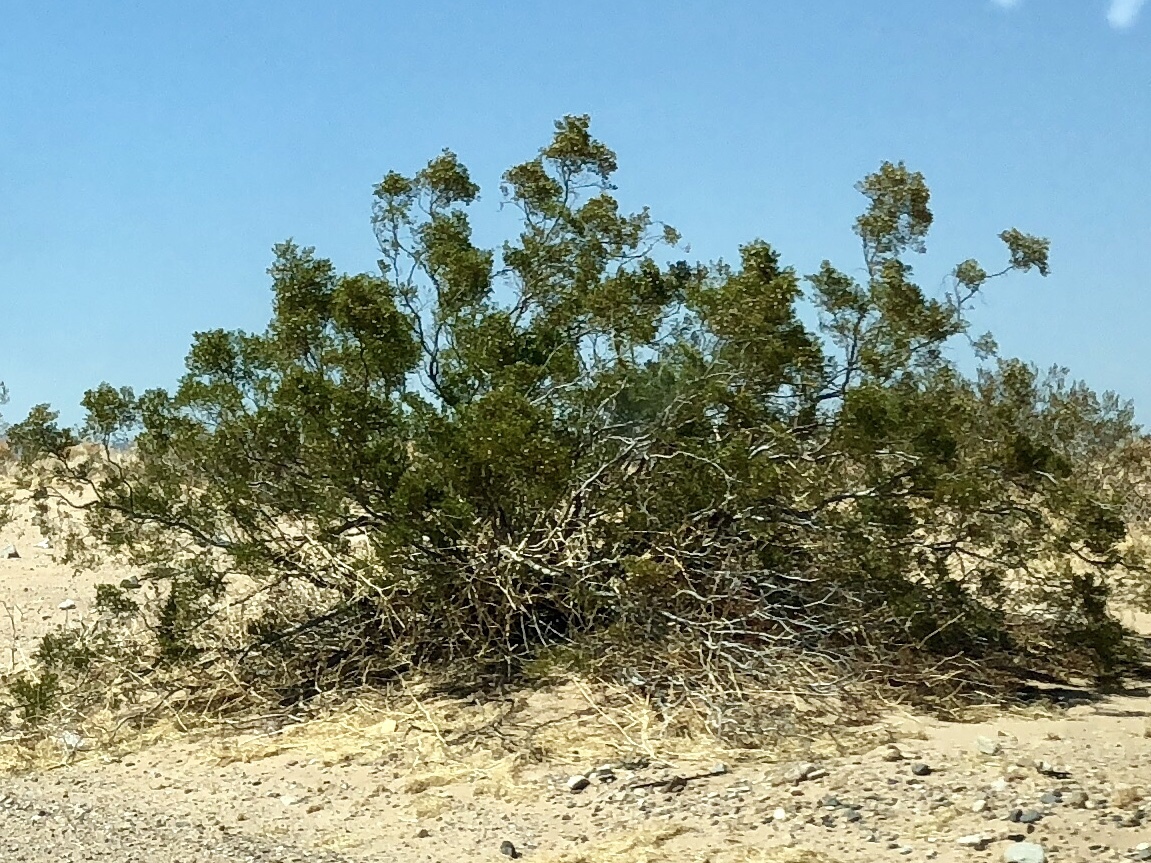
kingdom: Plantae
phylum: Tracheophyta
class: Magnoliopsida
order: Zygophyllales
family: Zygophyllaceae
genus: Larrea
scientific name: Larrea tridentata
